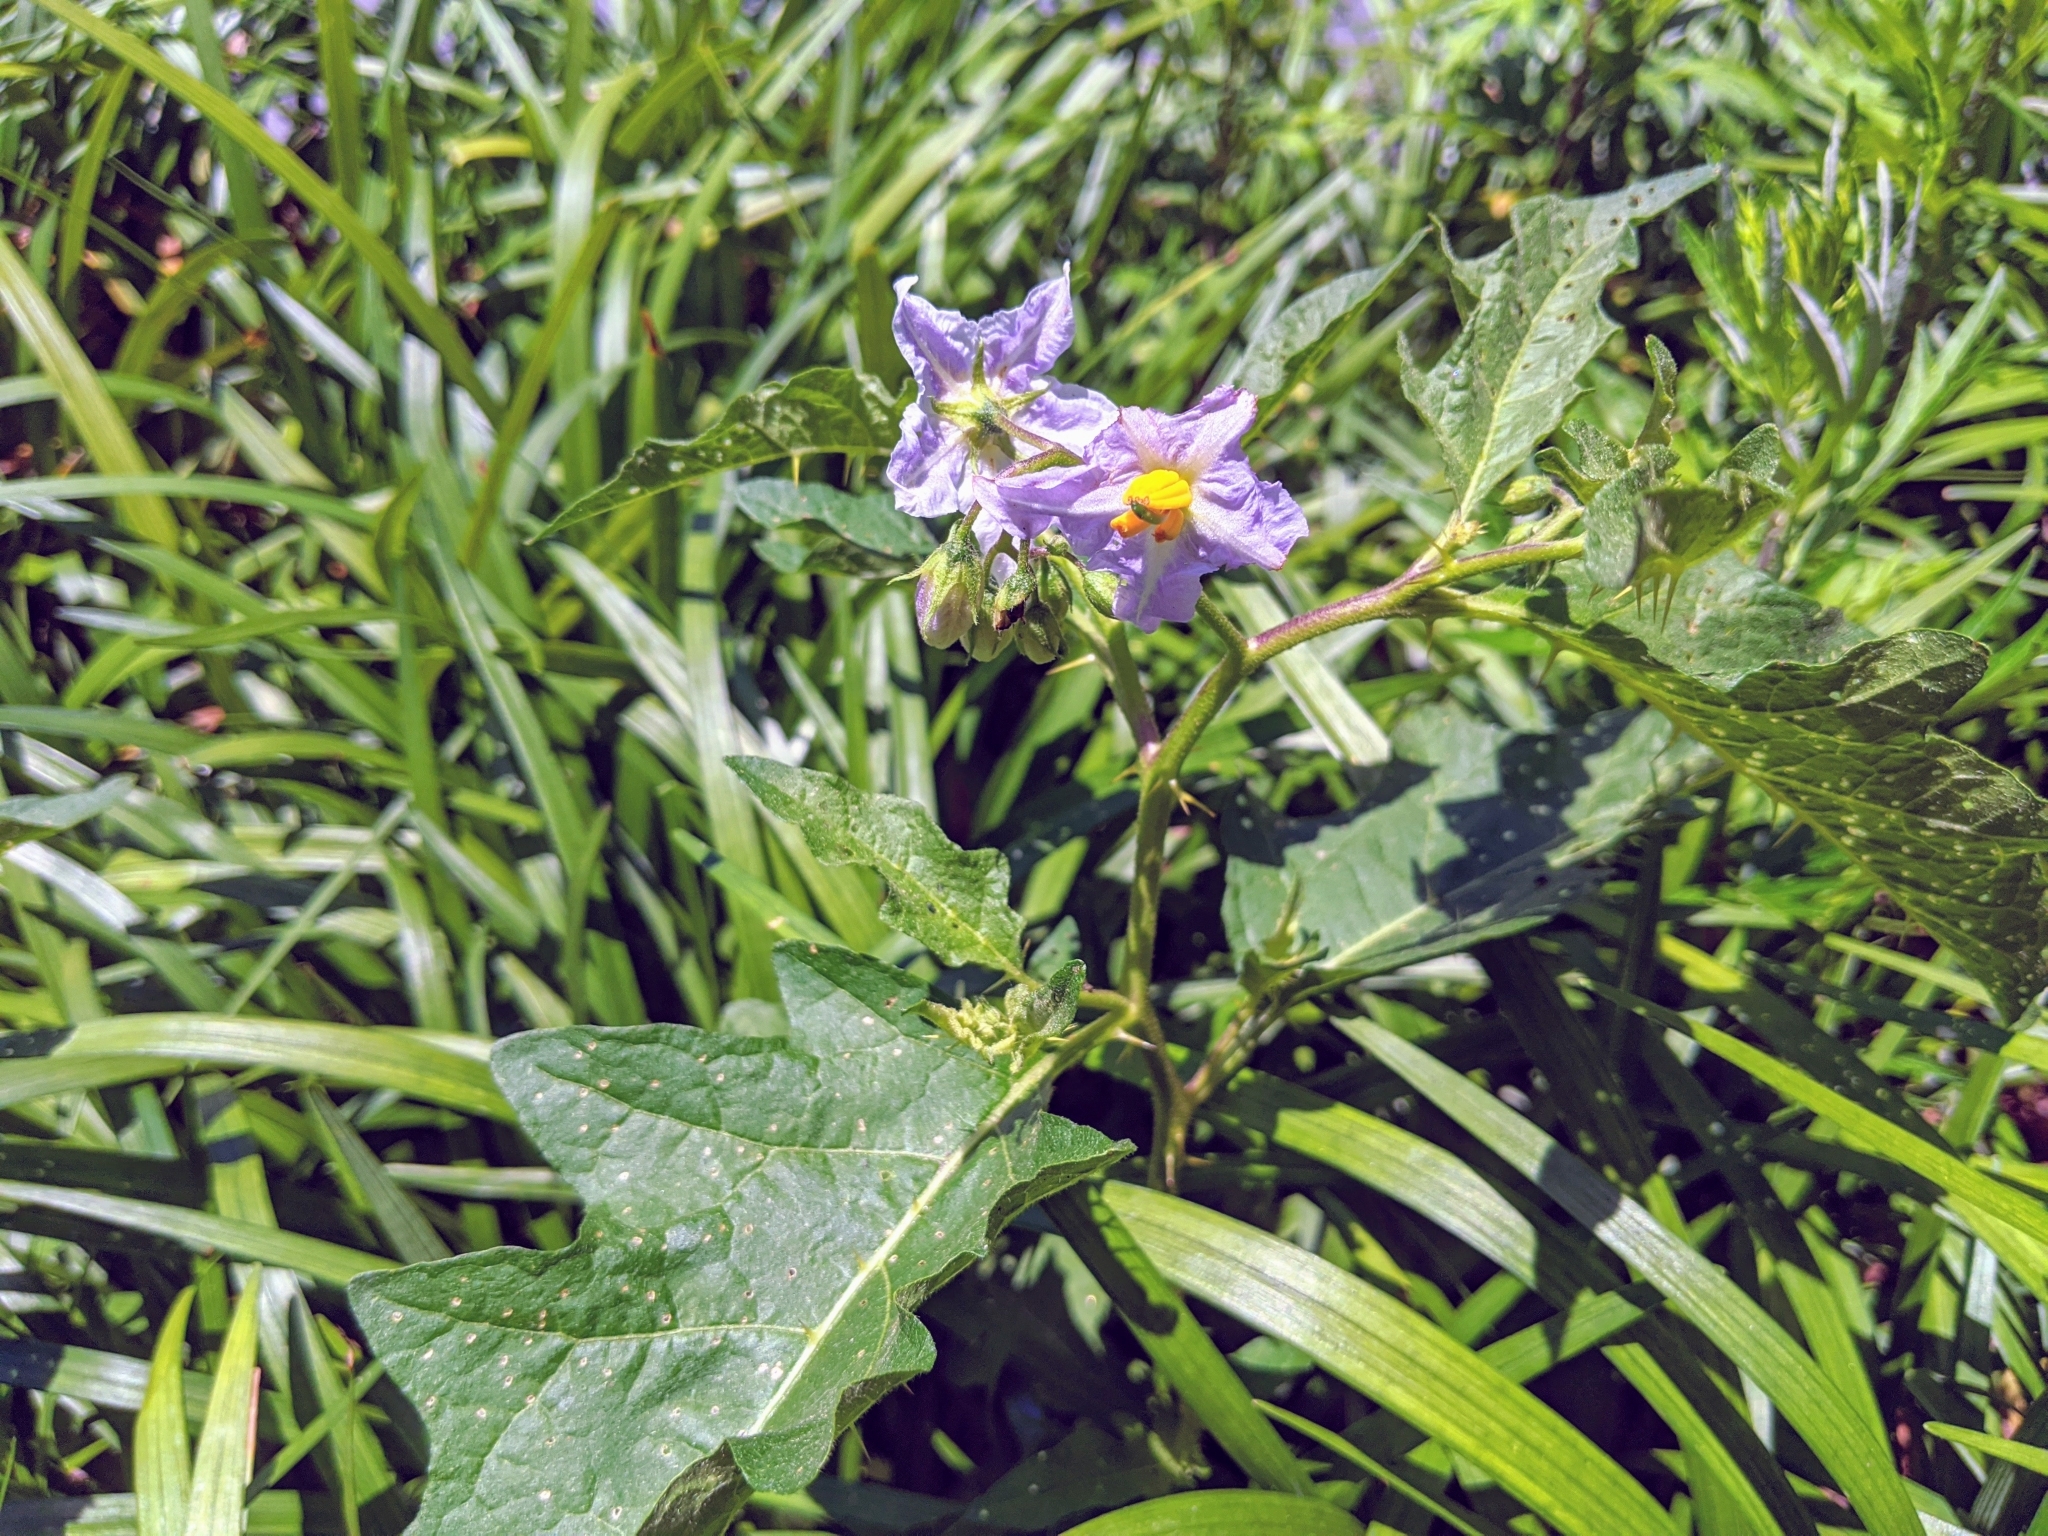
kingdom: Plantae
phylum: Tracheophyta
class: Magnoliopsida
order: Solanales
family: Solanaceae
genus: Solanum
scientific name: Solanum carolinense
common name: Horse-nettle
